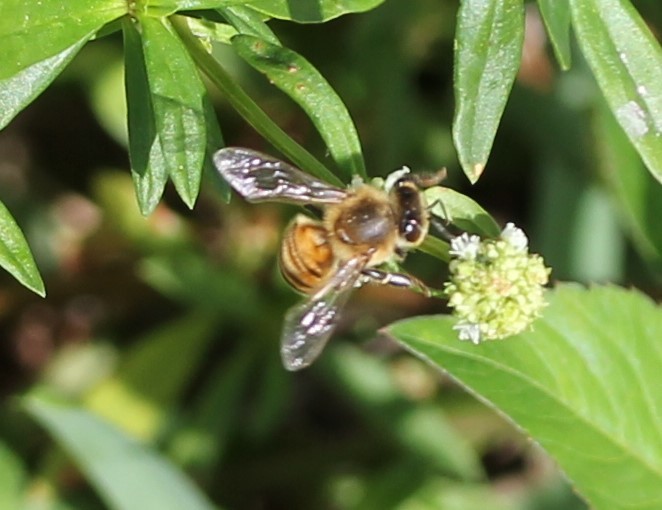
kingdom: Animalia
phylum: Arthropoda
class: Insecta
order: Hymenoptera
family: Apidae
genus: Apis
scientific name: Apis mellifera
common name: Honey bee
